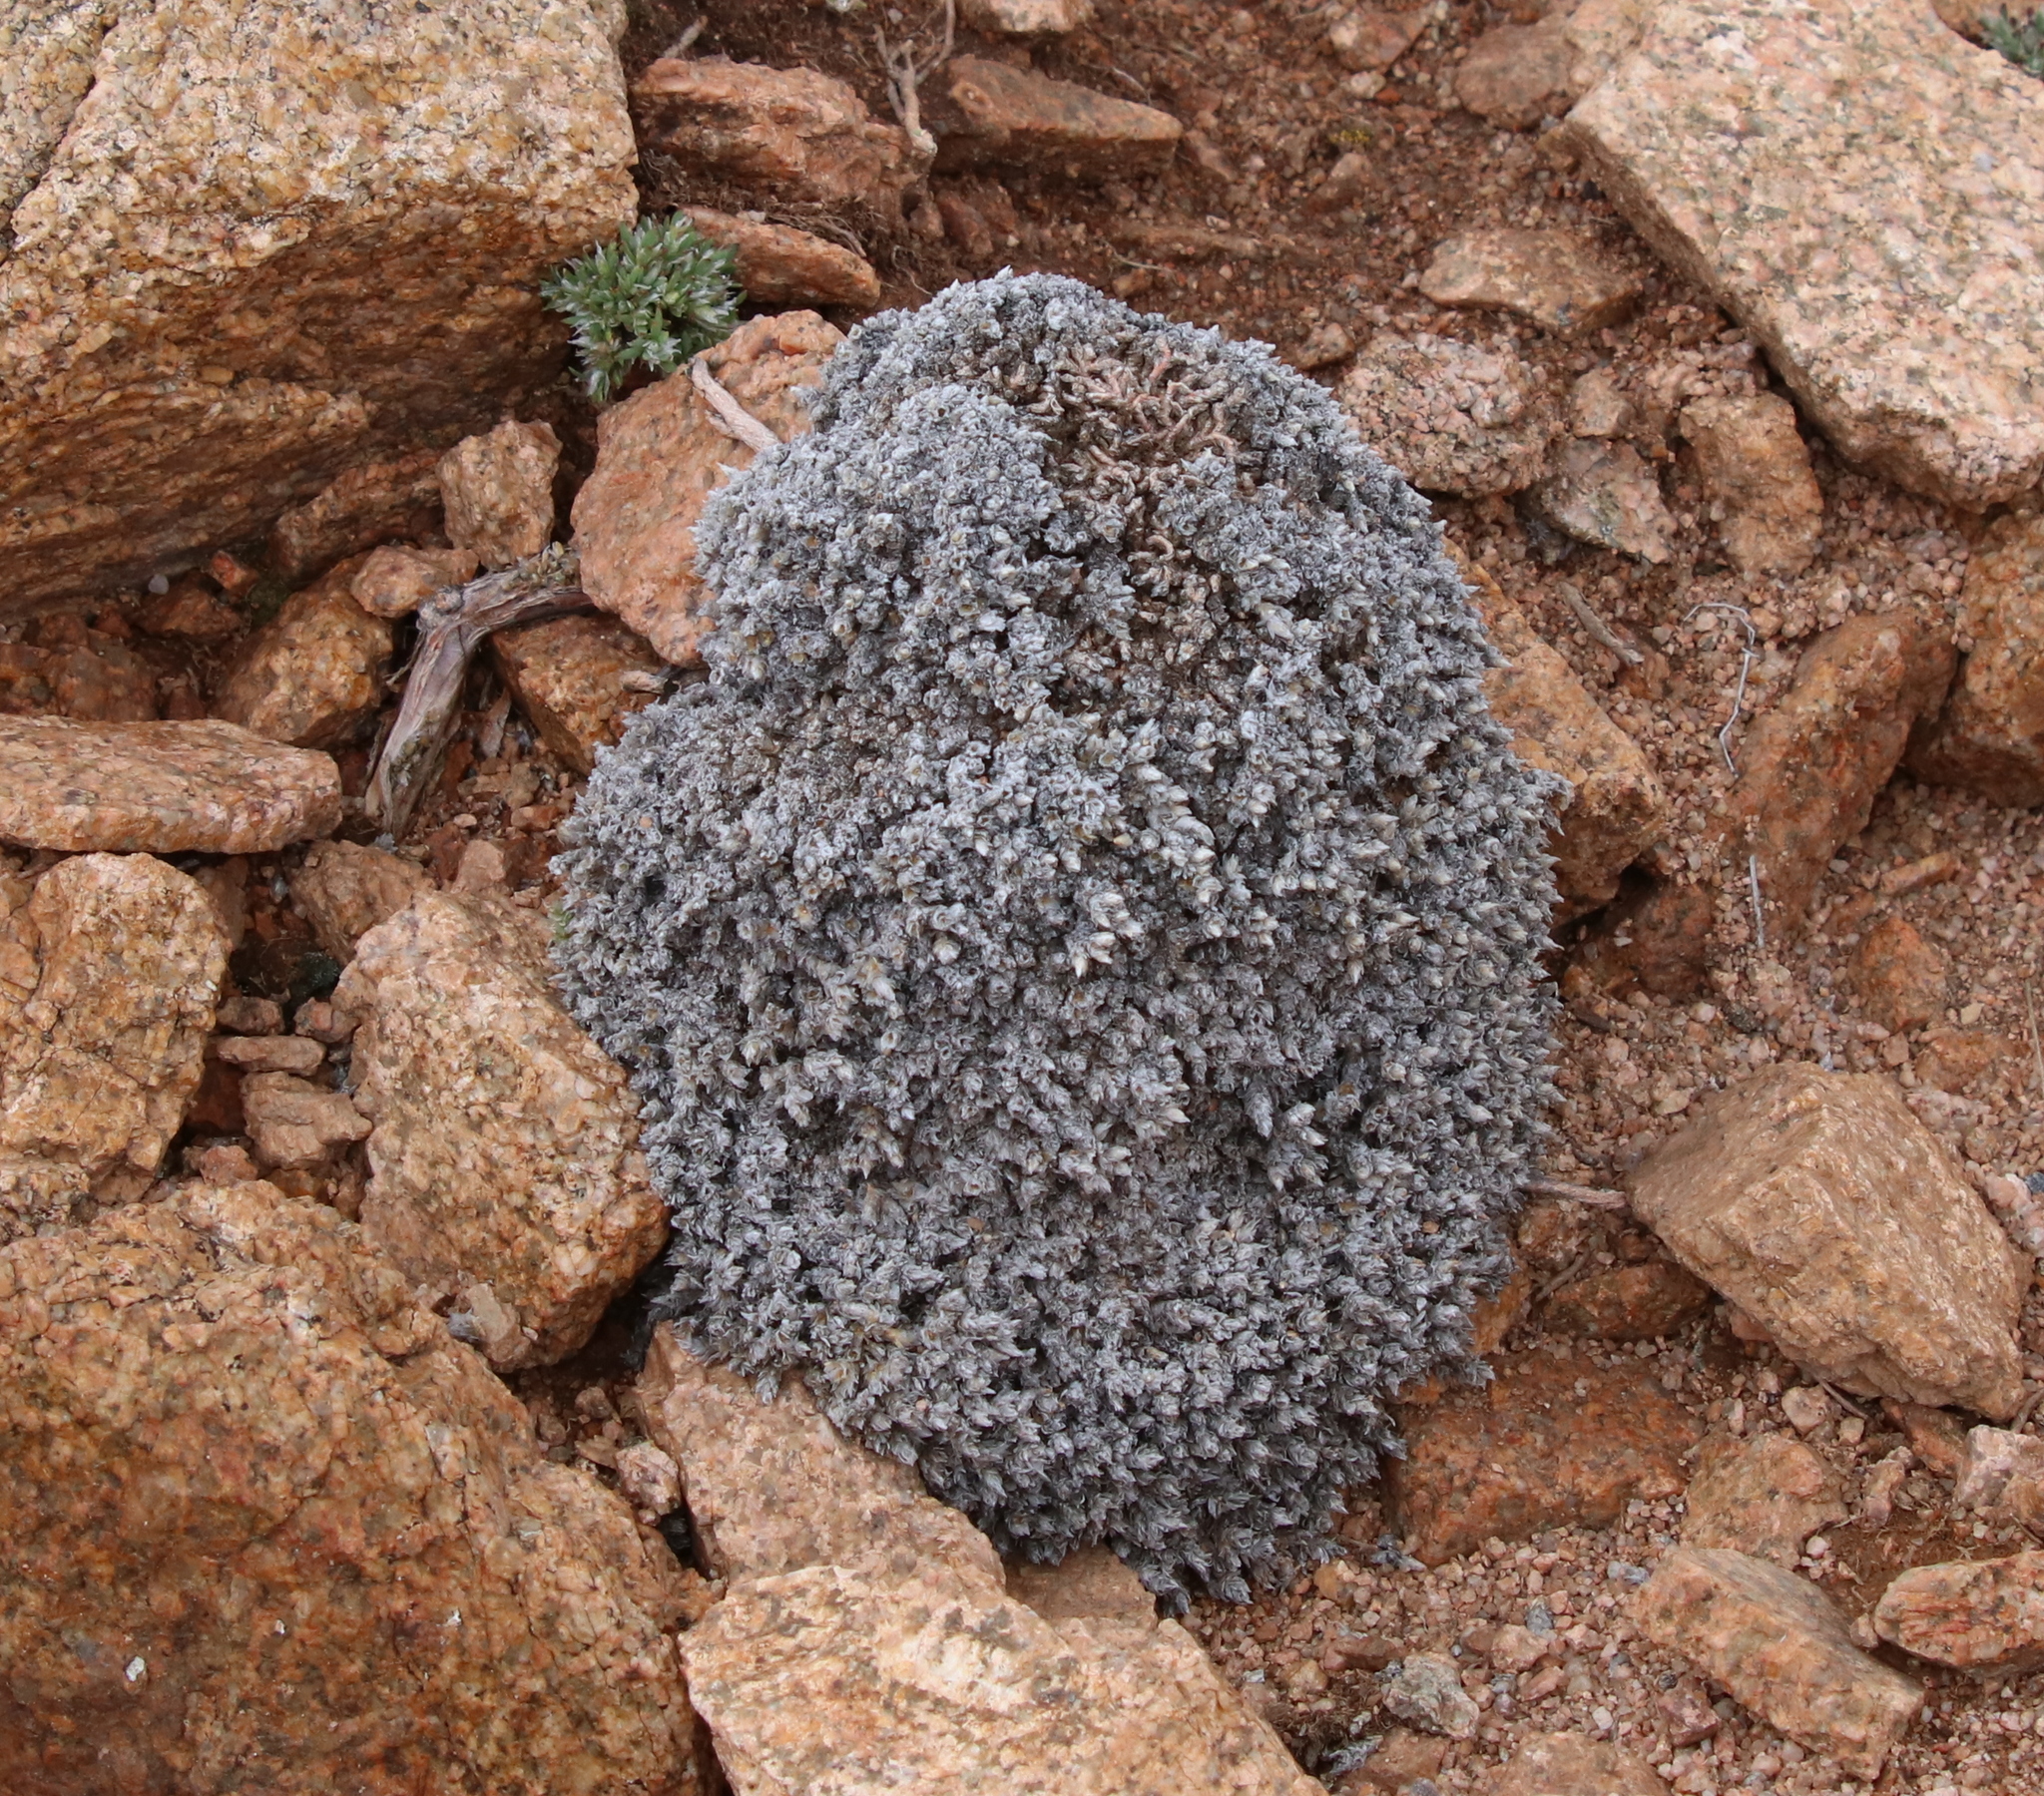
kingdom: Plantae
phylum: Tracheophyta
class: Magnoliopsida
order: Caryophyllales
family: Caryophyllaceae
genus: Paronychia
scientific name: Paronychia pulvinata
